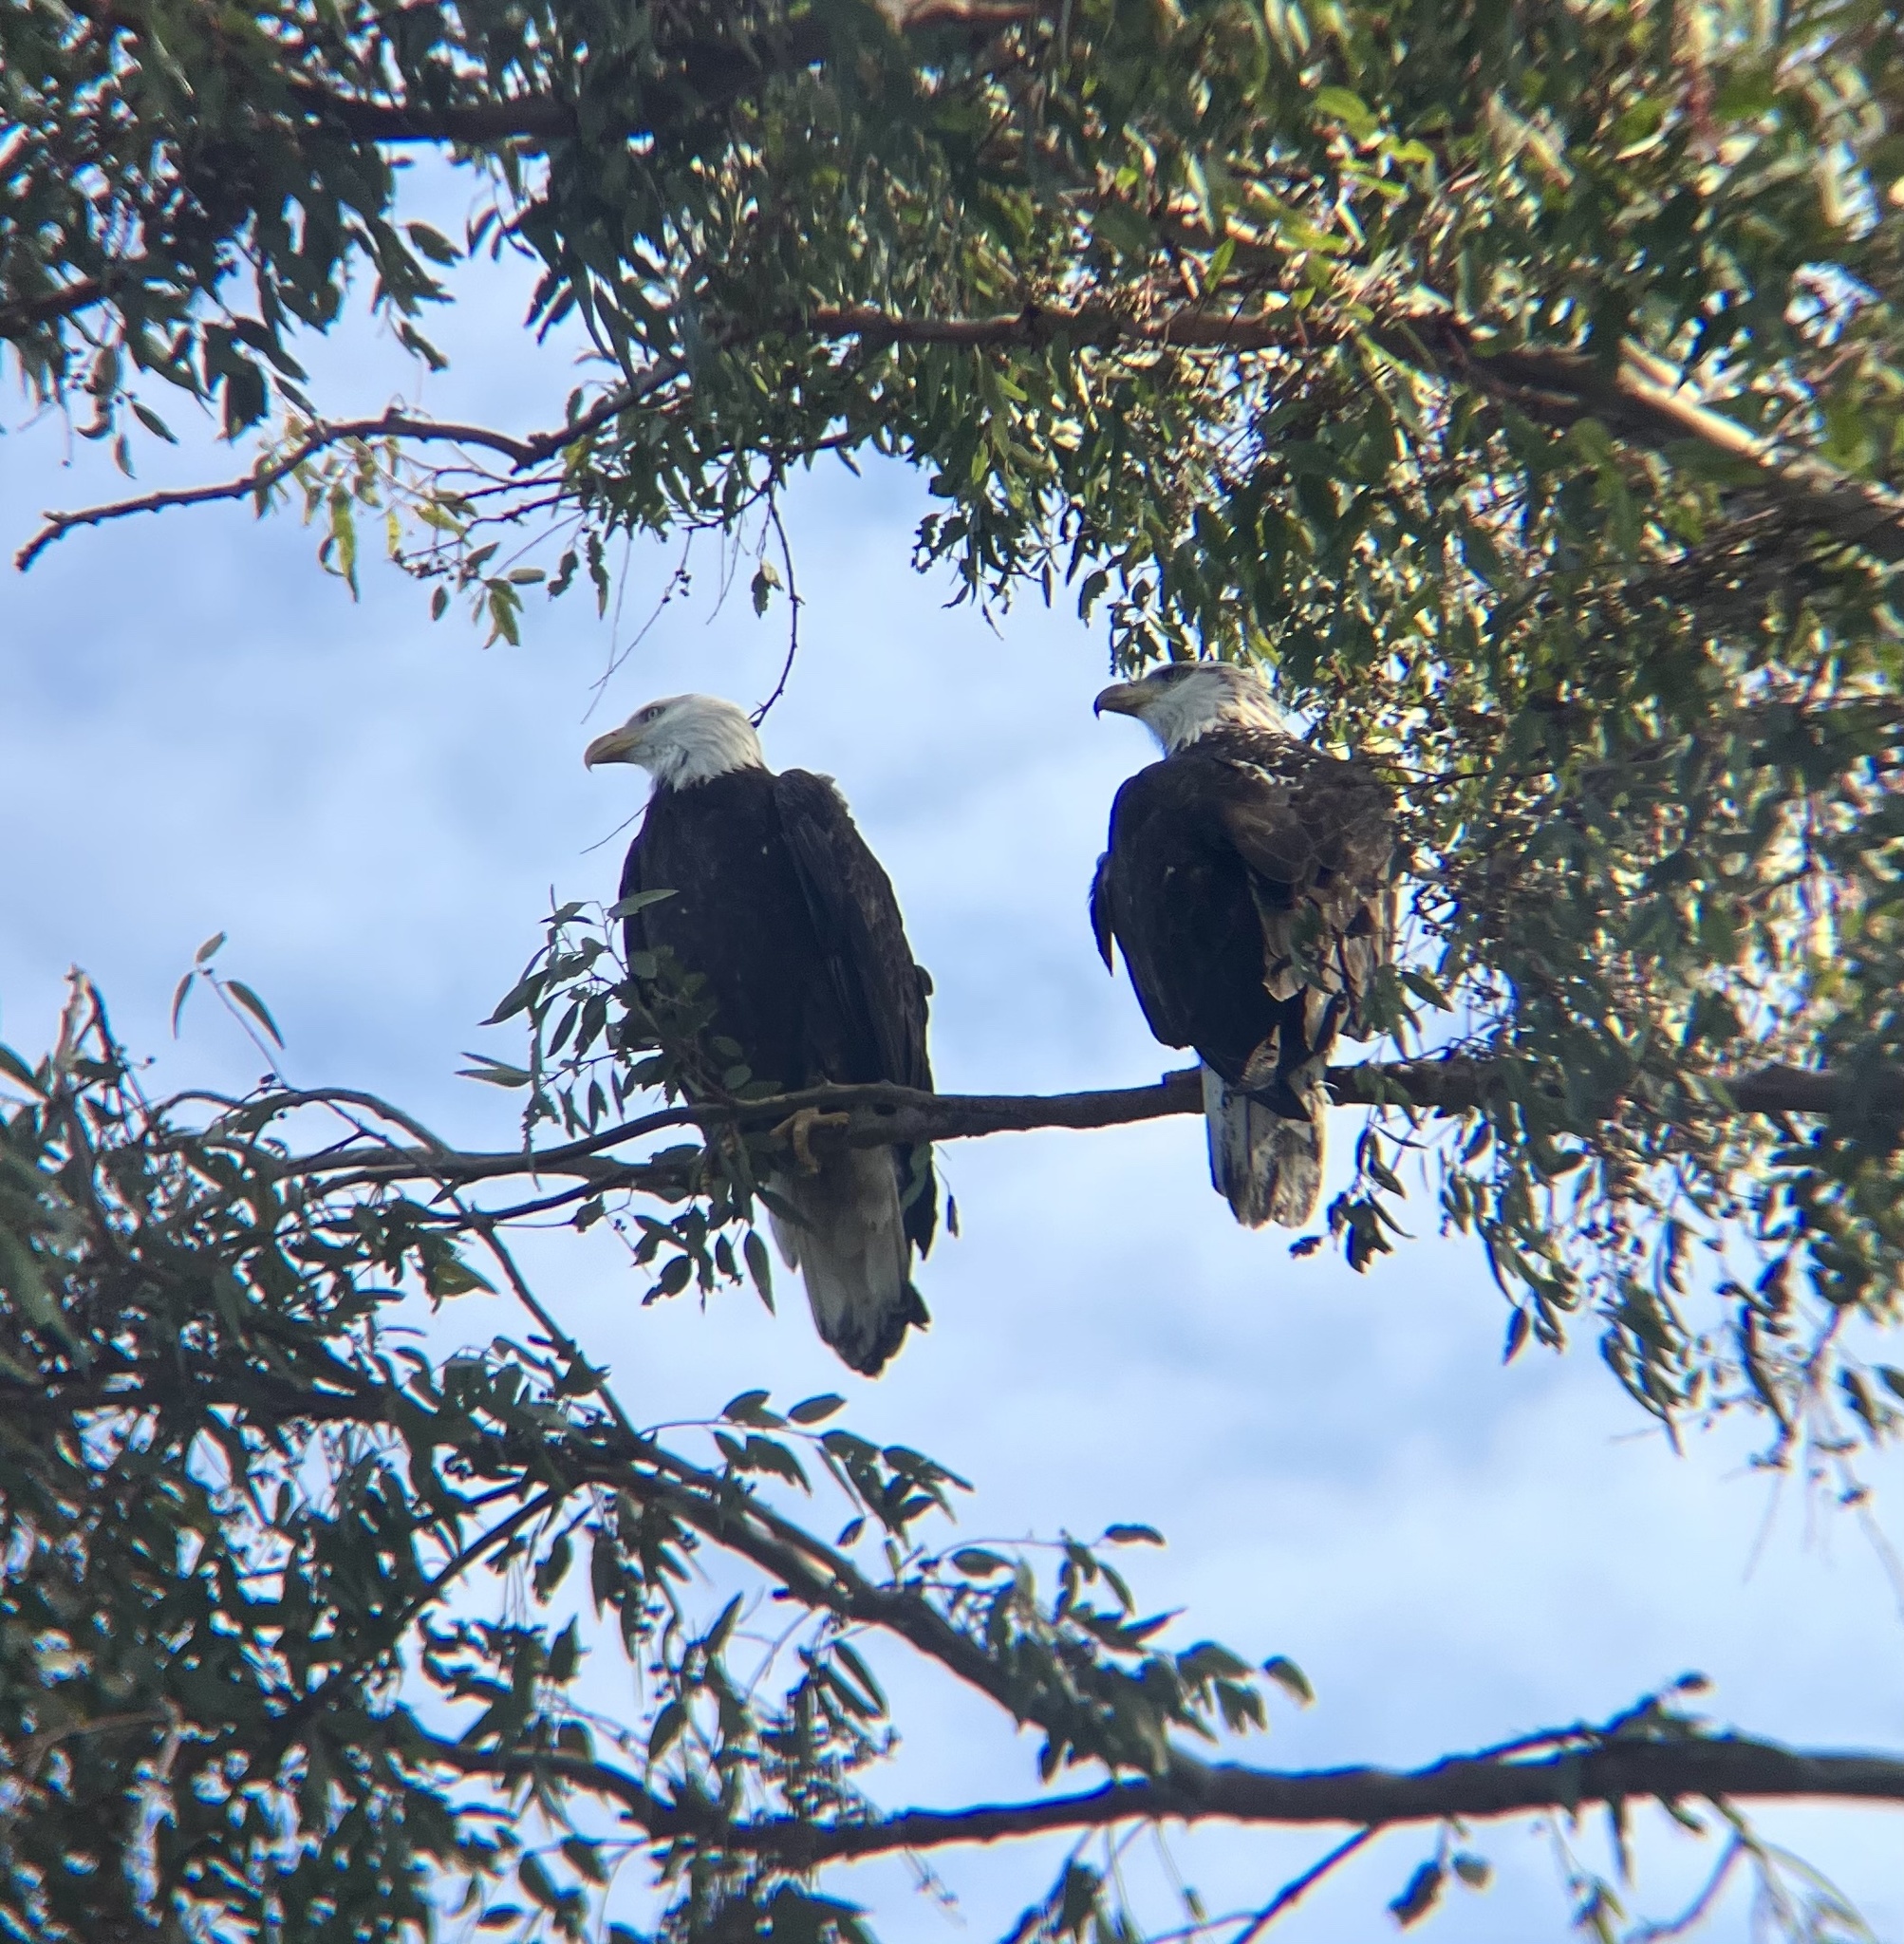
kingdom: Animalia
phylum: Chordata
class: Aves
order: Accipitriformes
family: Accipitridae
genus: Haliaeetus
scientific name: Haliaeetus leucocephalus
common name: Bald eagle
